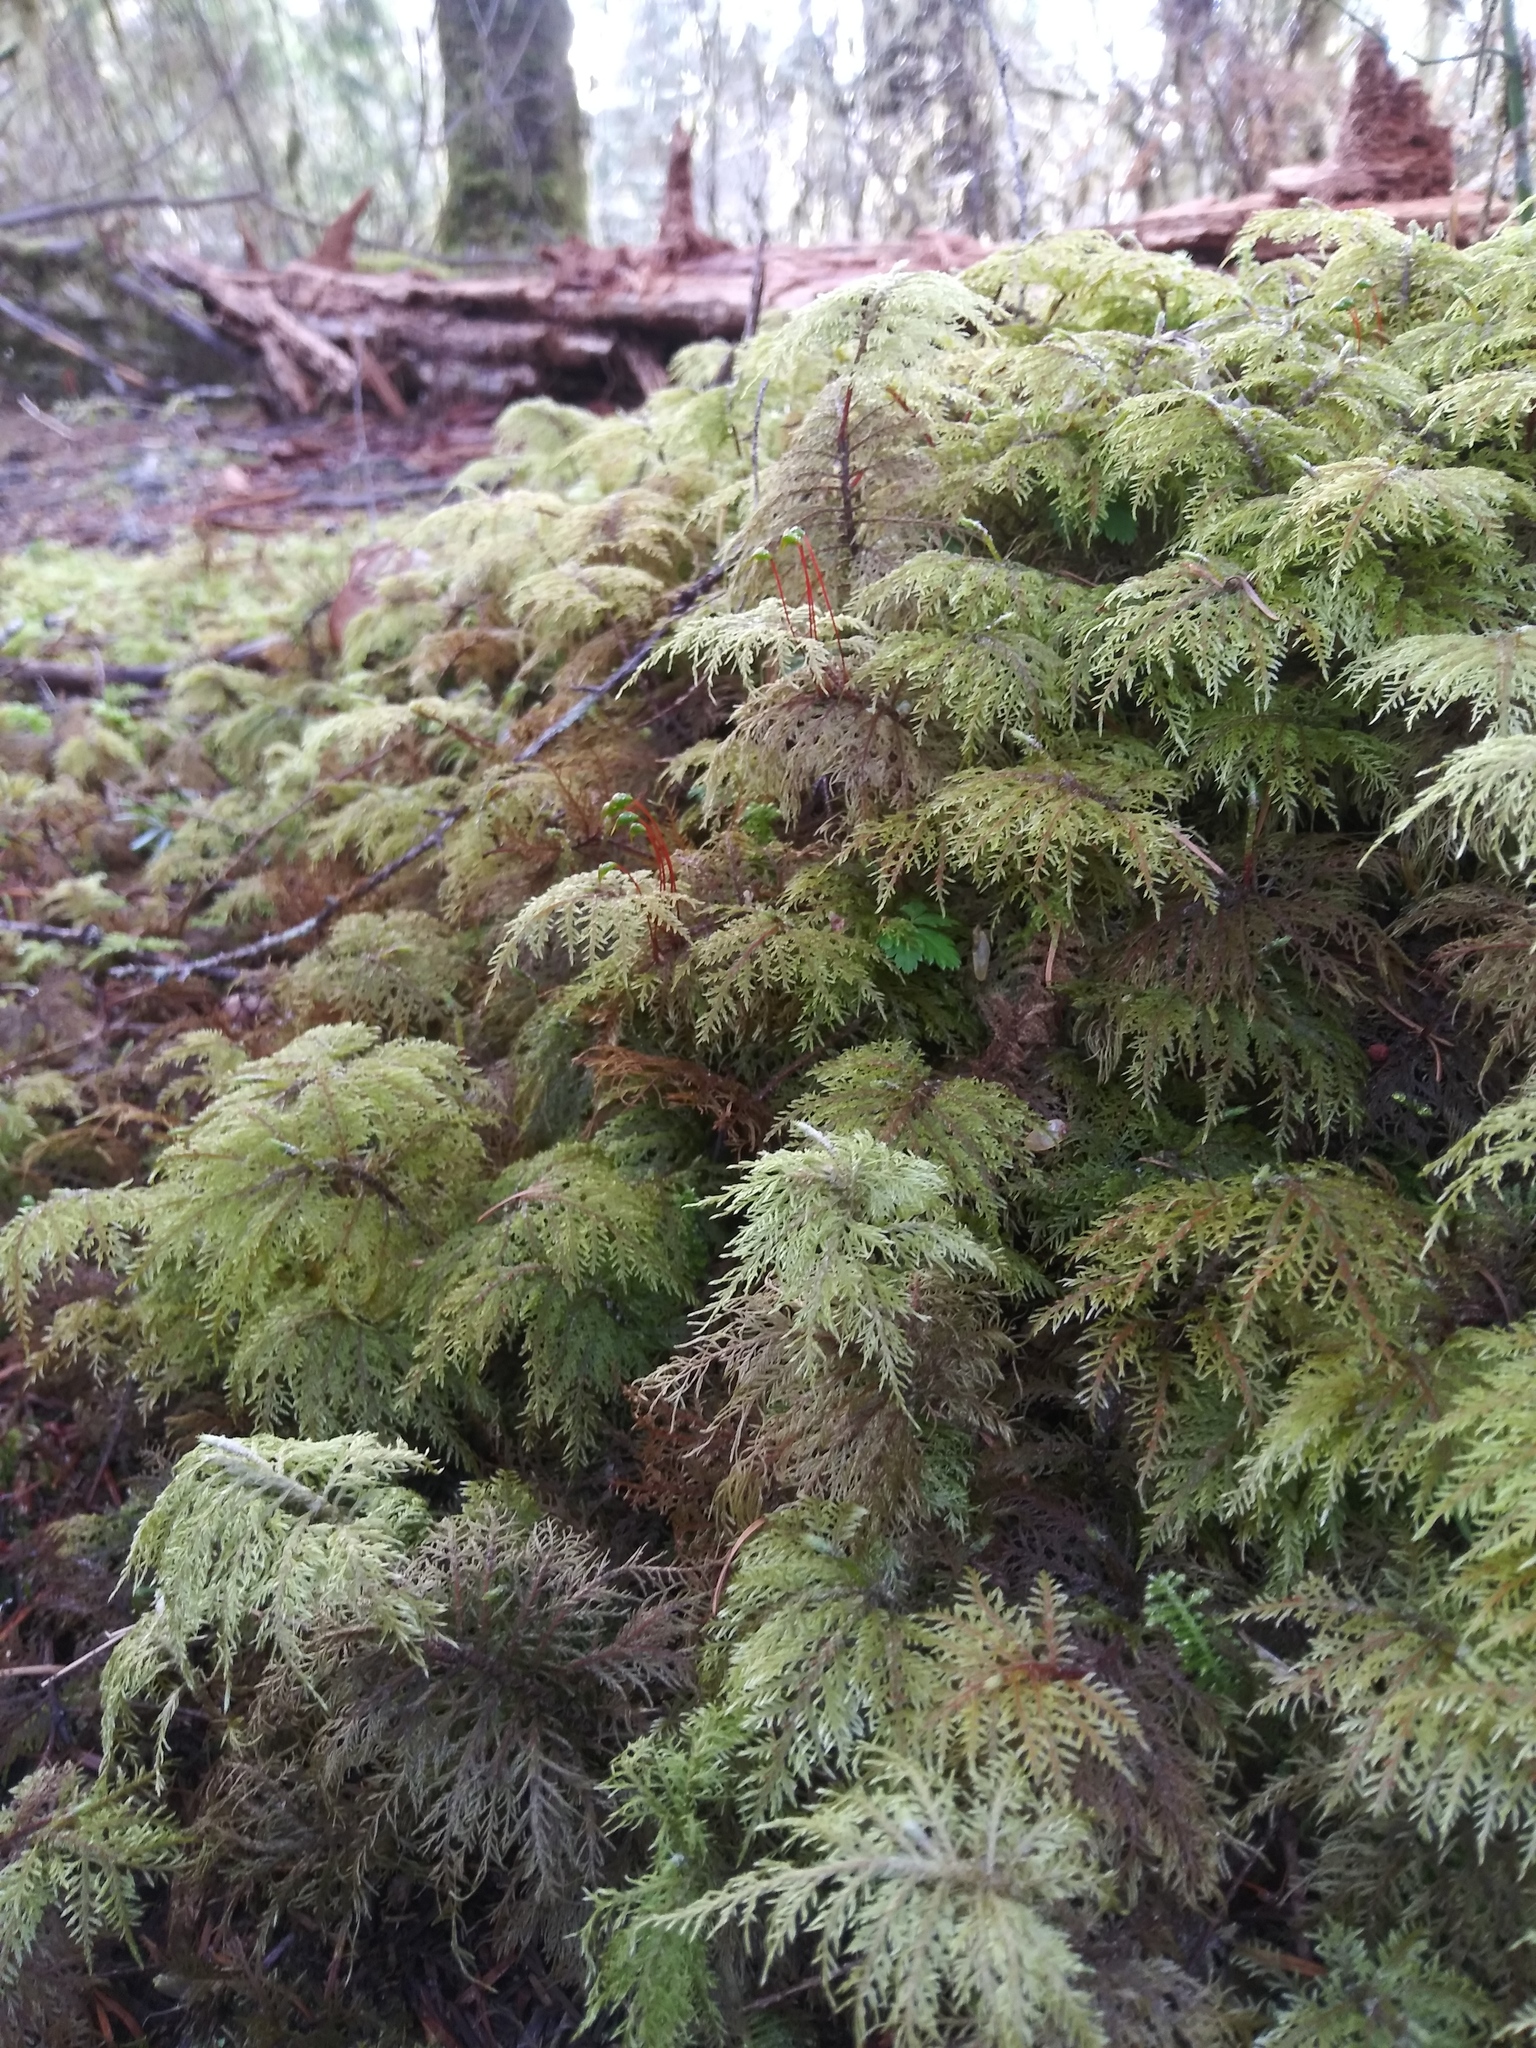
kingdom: Plantae
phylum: Bryophyta
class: Bryopsida
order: Hypnales
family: Hylocomiaceae
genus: Hylocomium
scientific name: Hylocomium splendens
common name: Stairstep moss
